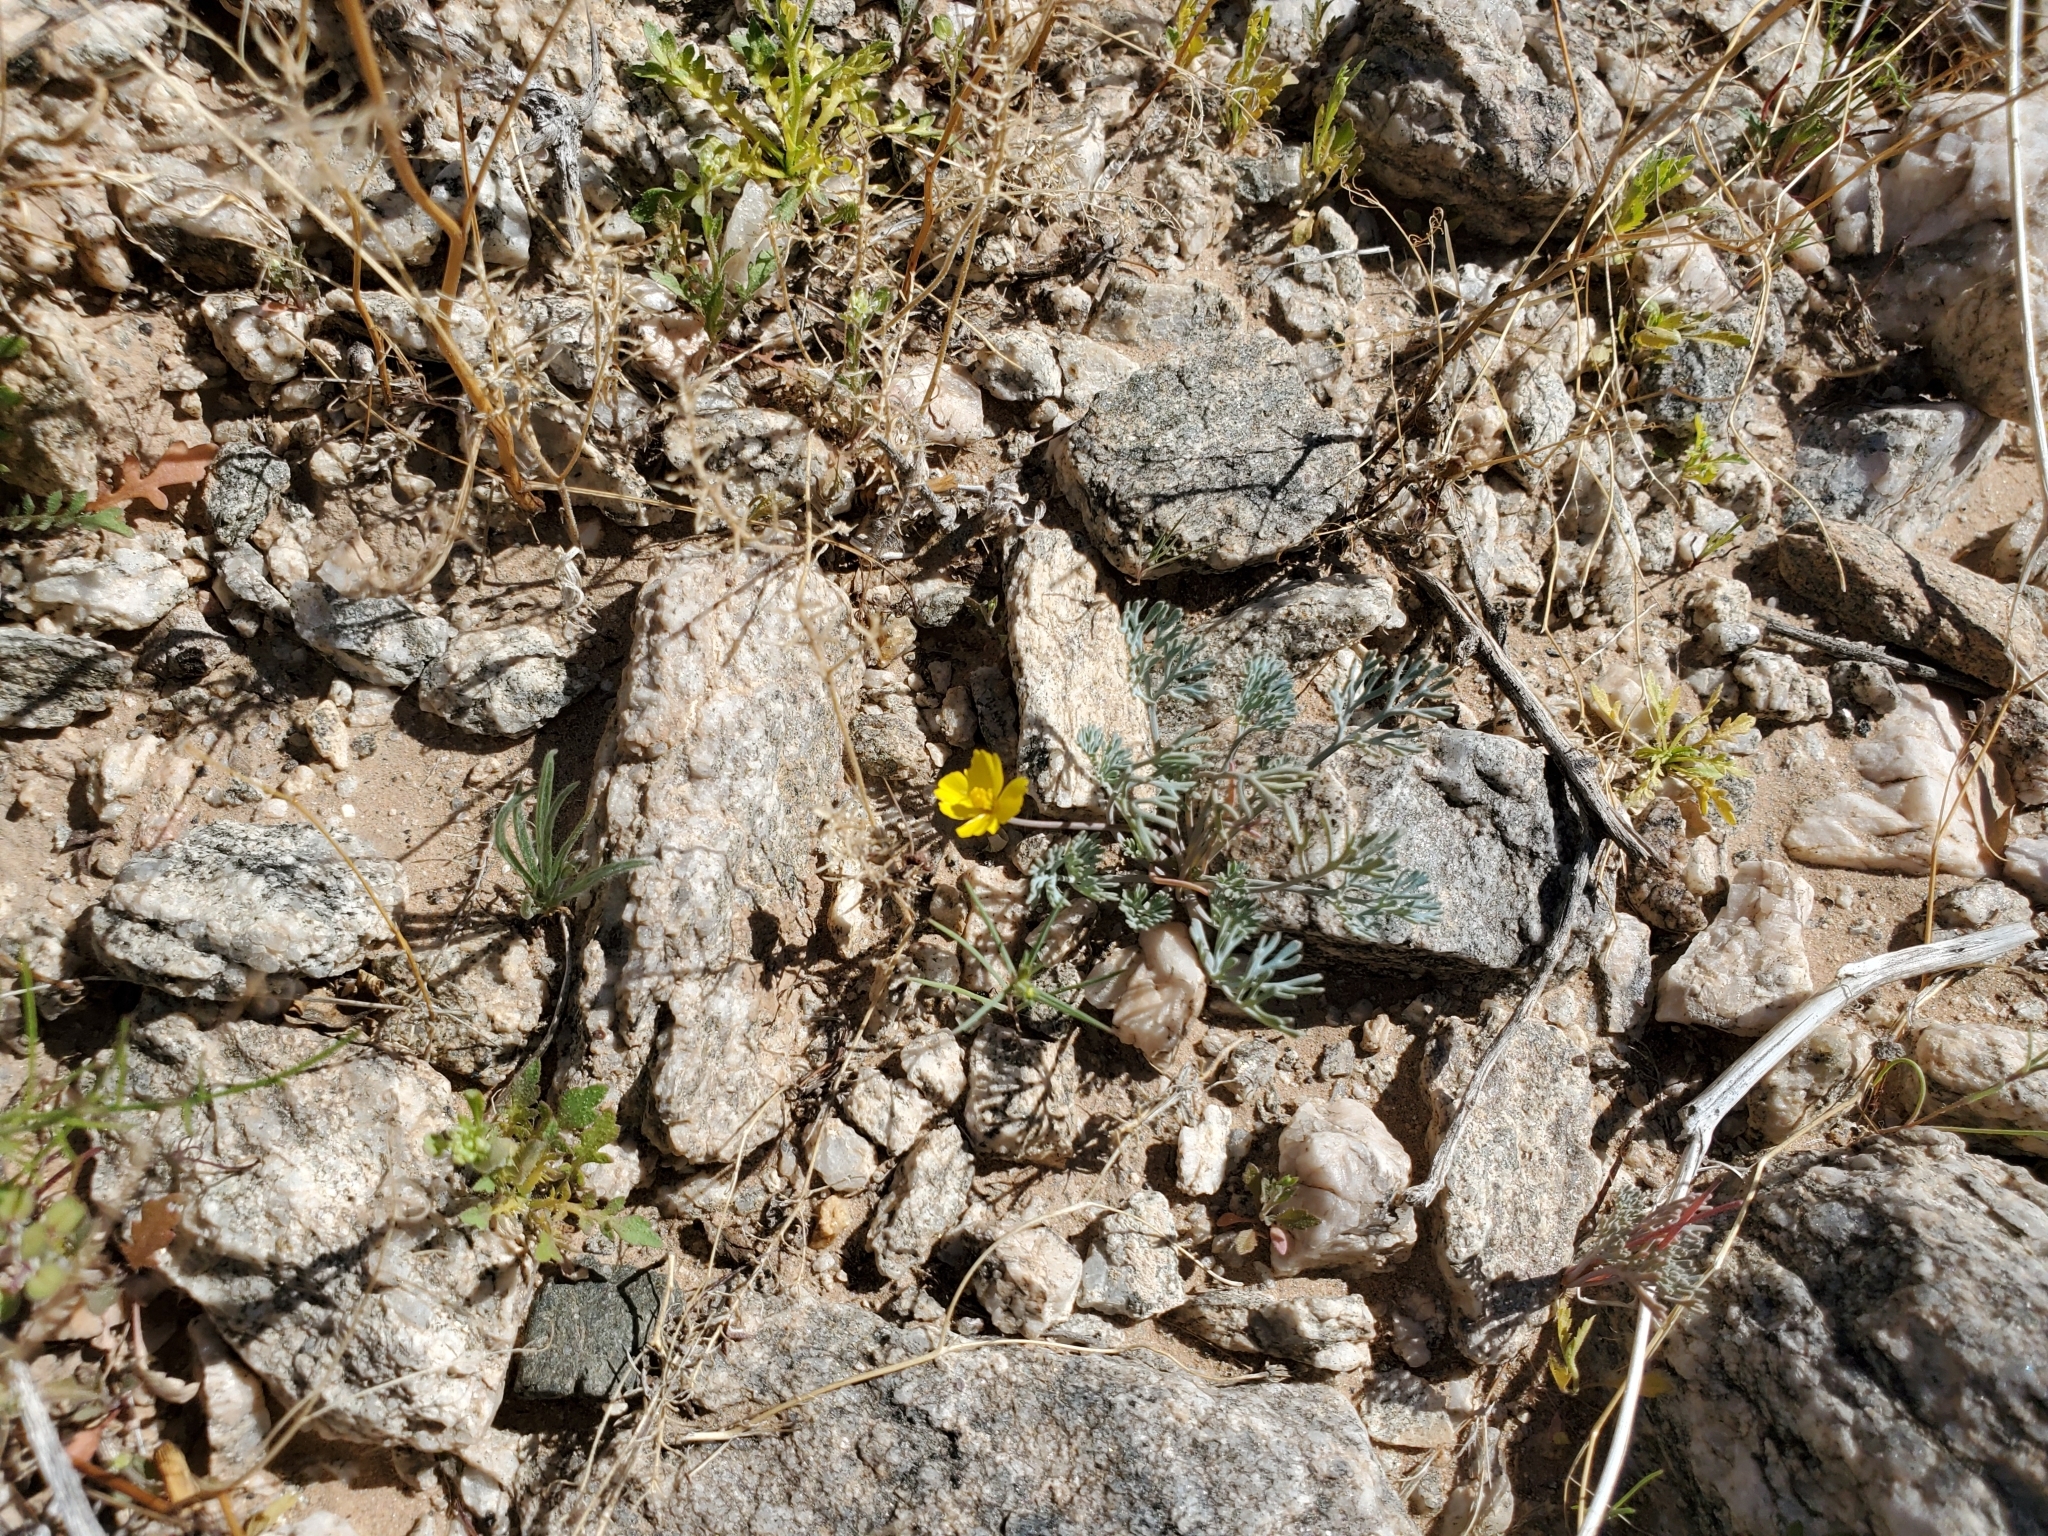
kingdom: Plantae
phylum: Tracheophyta
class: Magnoliopsida
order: Ranunculales
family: Papaveraceae
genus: Eschscholzia
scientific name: Eschscholzia minutiflora
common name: Small-flower california-poppy
